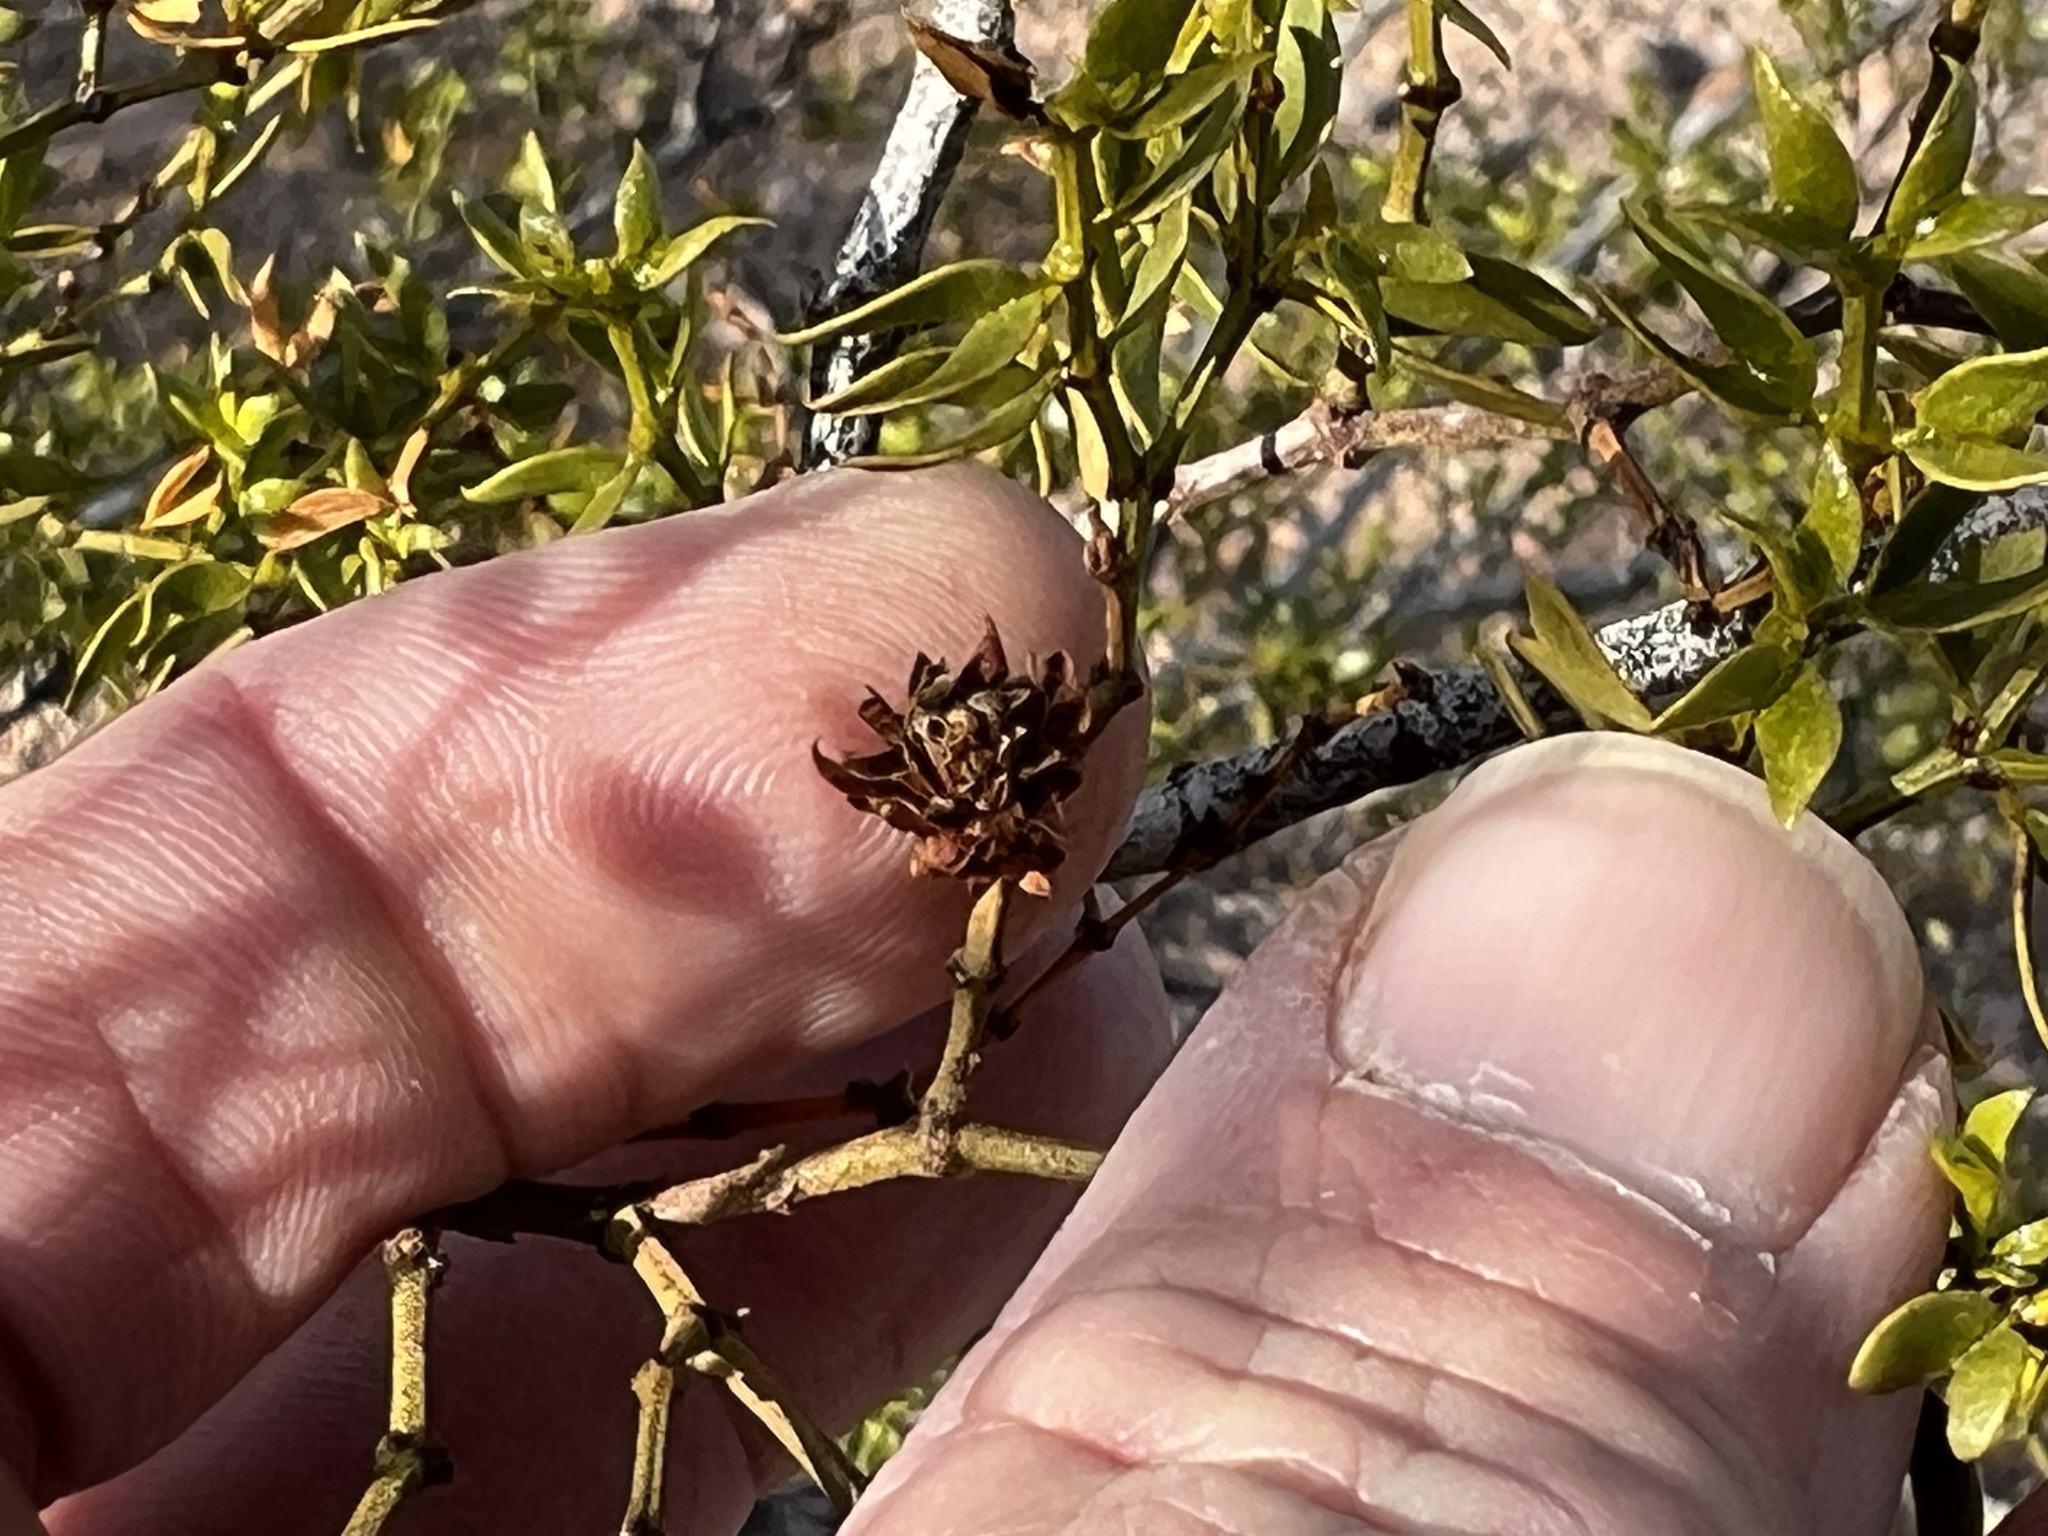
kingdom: Animalia
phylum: Arthropoda
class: Insecta
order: Diptera
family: Cecidomyiidae
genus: Asphondylia
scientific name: Asphondylia rosetta
